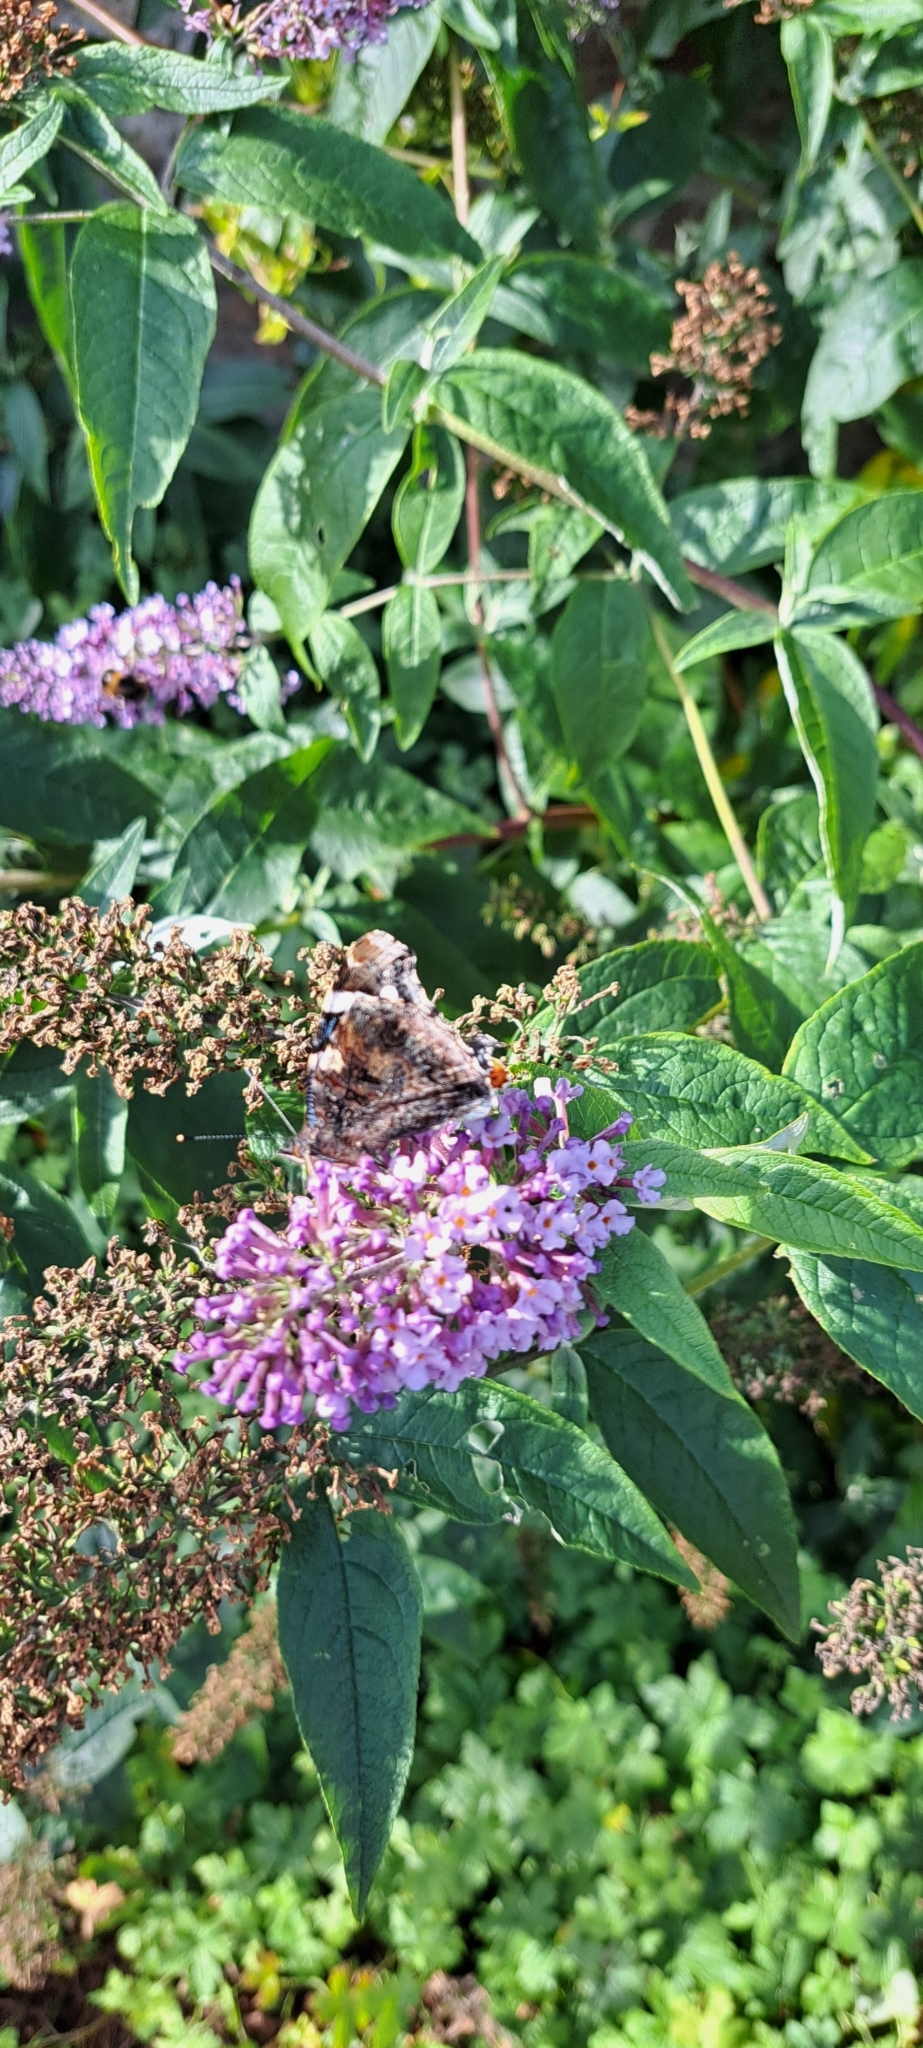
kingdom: Animalia
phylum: Arthropoda
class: Insecta
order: Lepidoptera
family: Nymphalidae
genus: Vanessa
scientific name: Vanessa atalanta
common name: Red admiral
